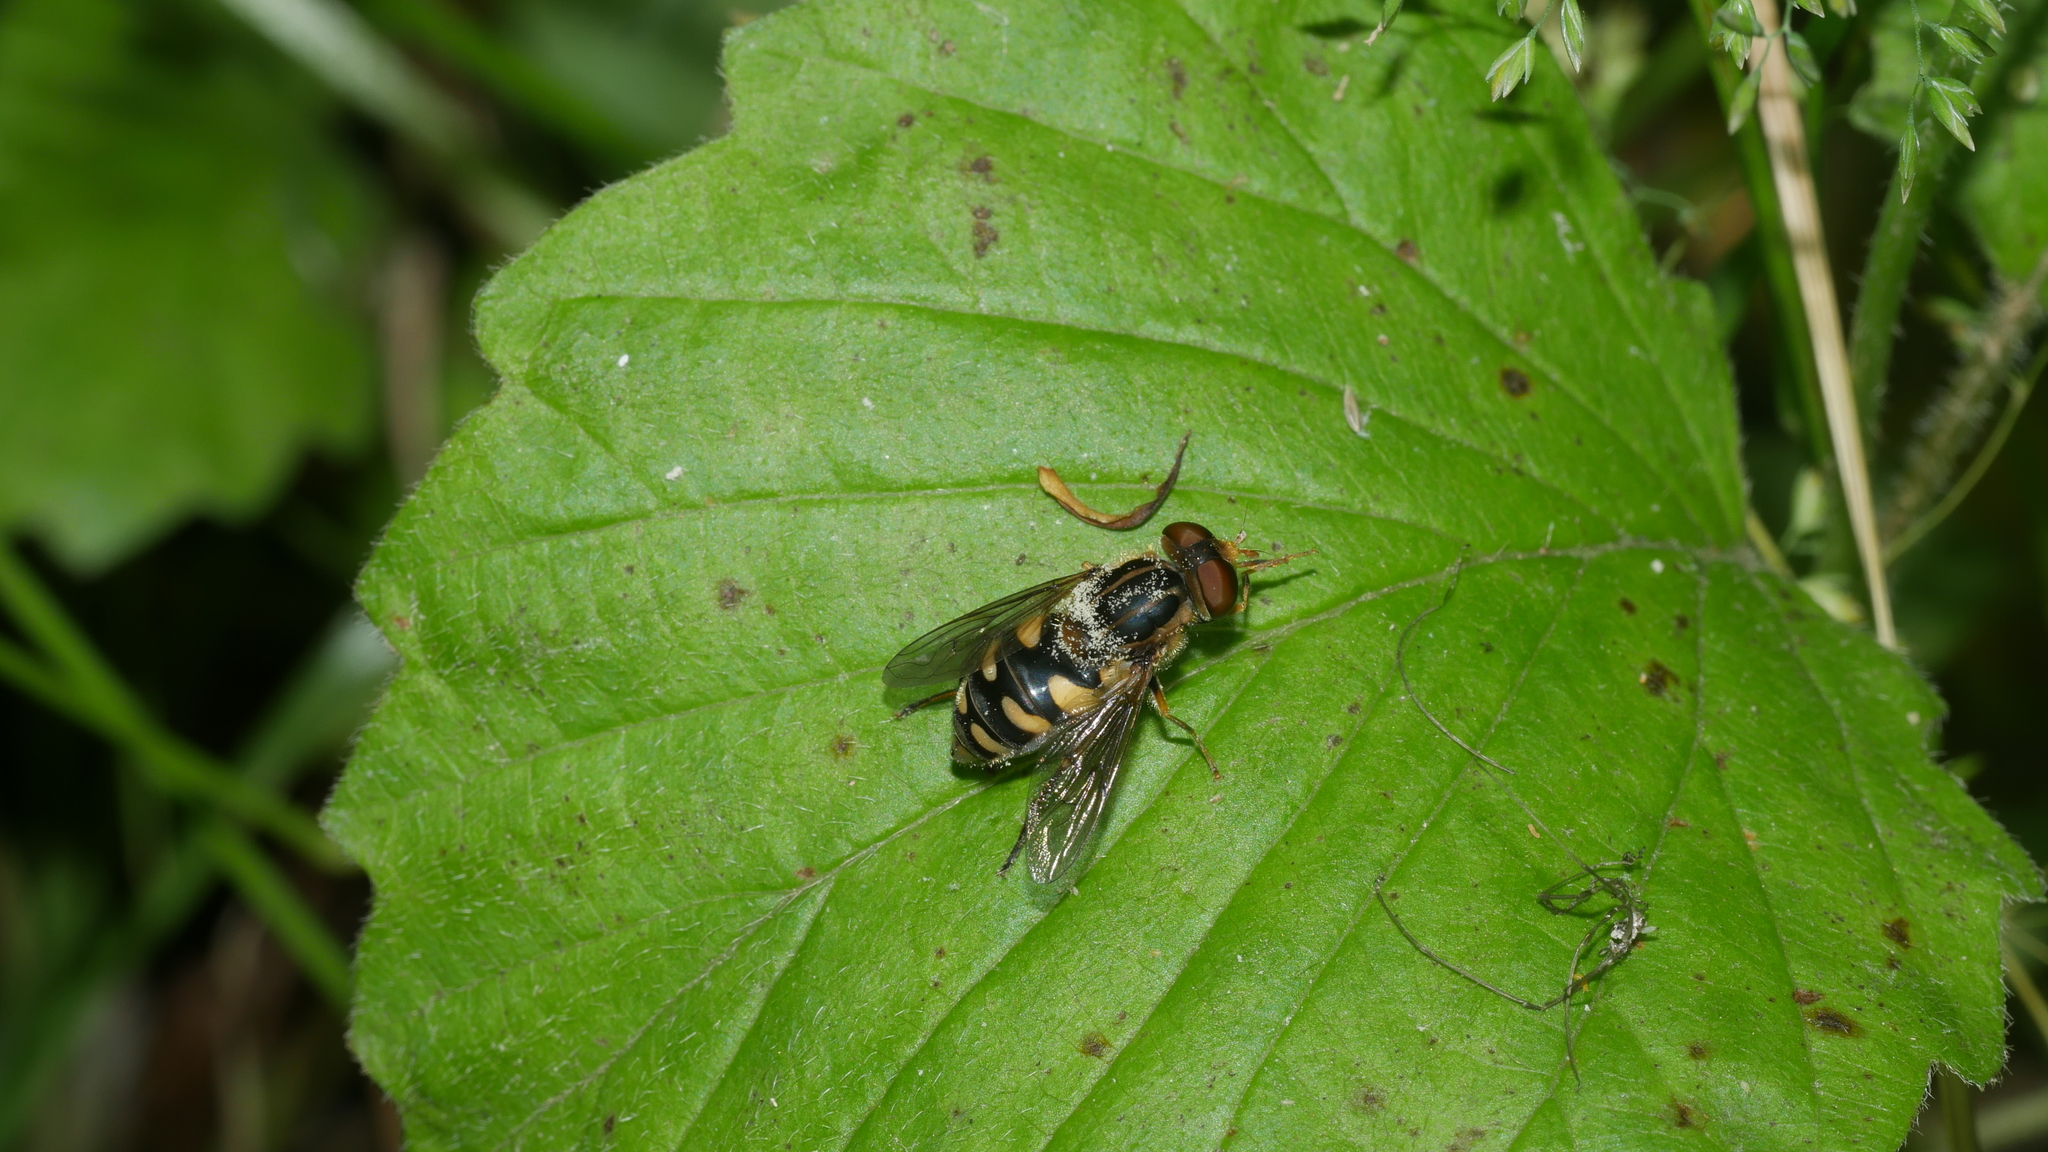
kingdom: Animalia
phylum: Arthropoda
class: Insecta
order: Diptera
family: Syrphidae
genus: Parhelophilus
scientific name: Parhelophilus flavifacies
